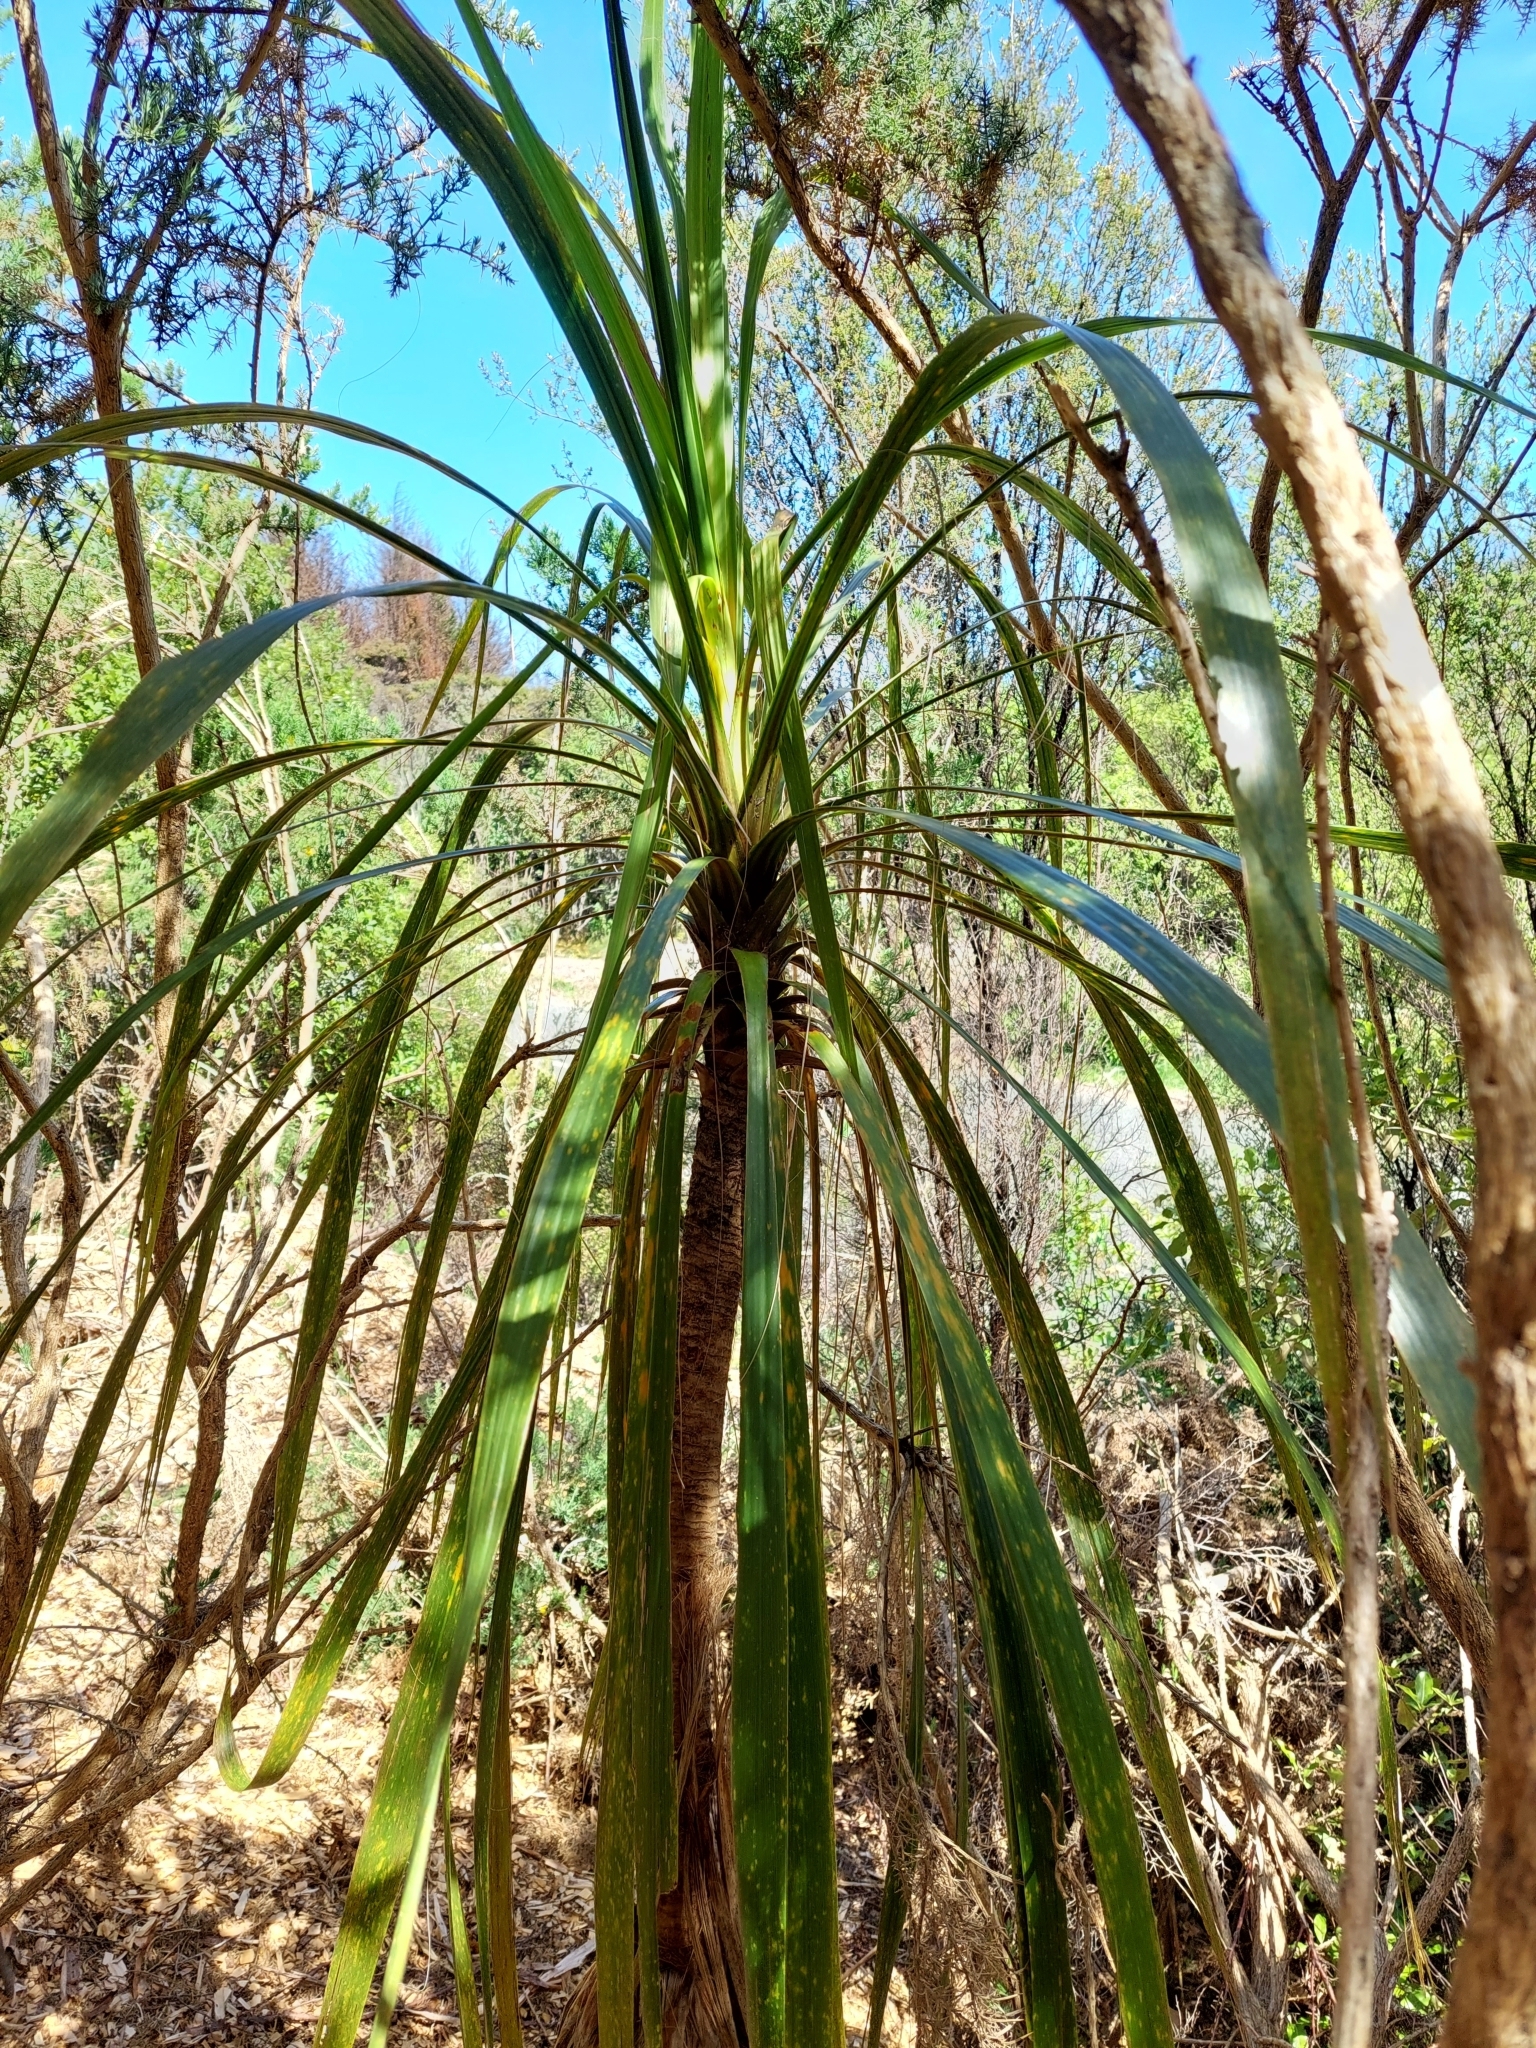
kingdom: Plantae
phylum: Tracheophyta
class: Liliopsida
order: Asparagales
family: Asparagaceae
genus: Cordyline
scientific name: Cordyline banksii
